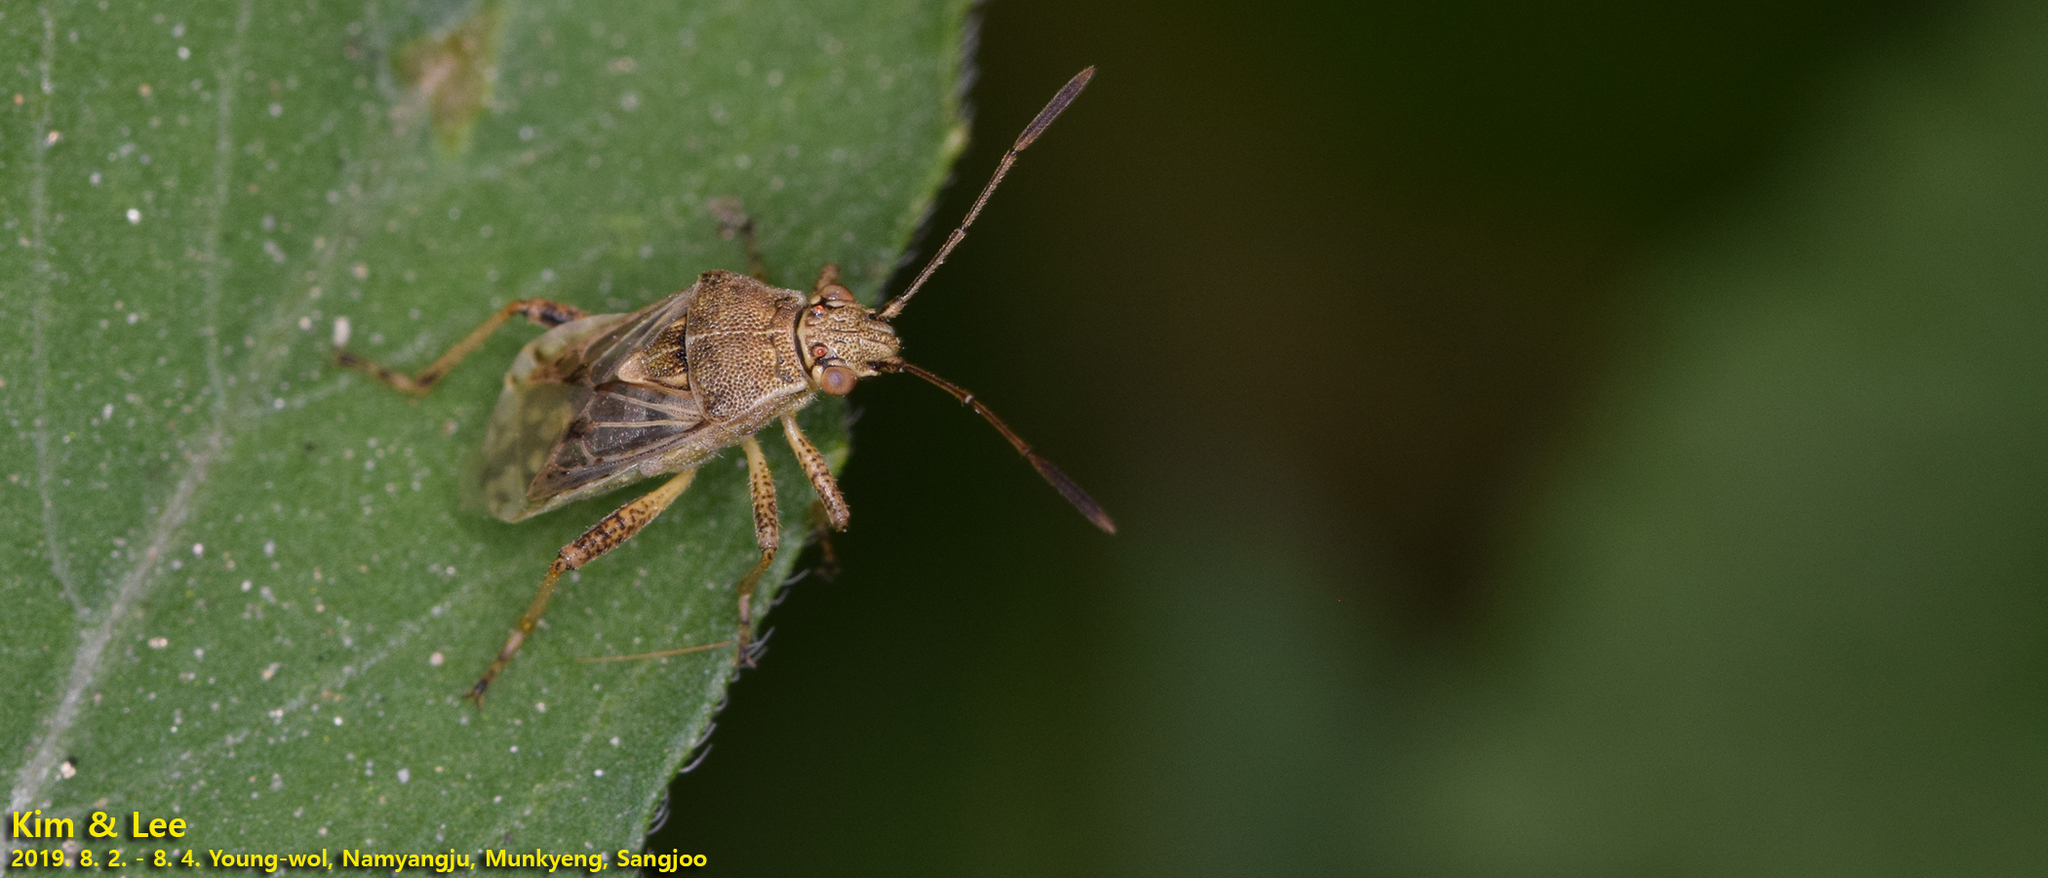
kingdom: Animalia
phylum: Arthropoda
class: Insecta
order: Hemiptera
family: Rhopalidae
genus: Stictopleurus
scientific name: Stictopleurus minutus
